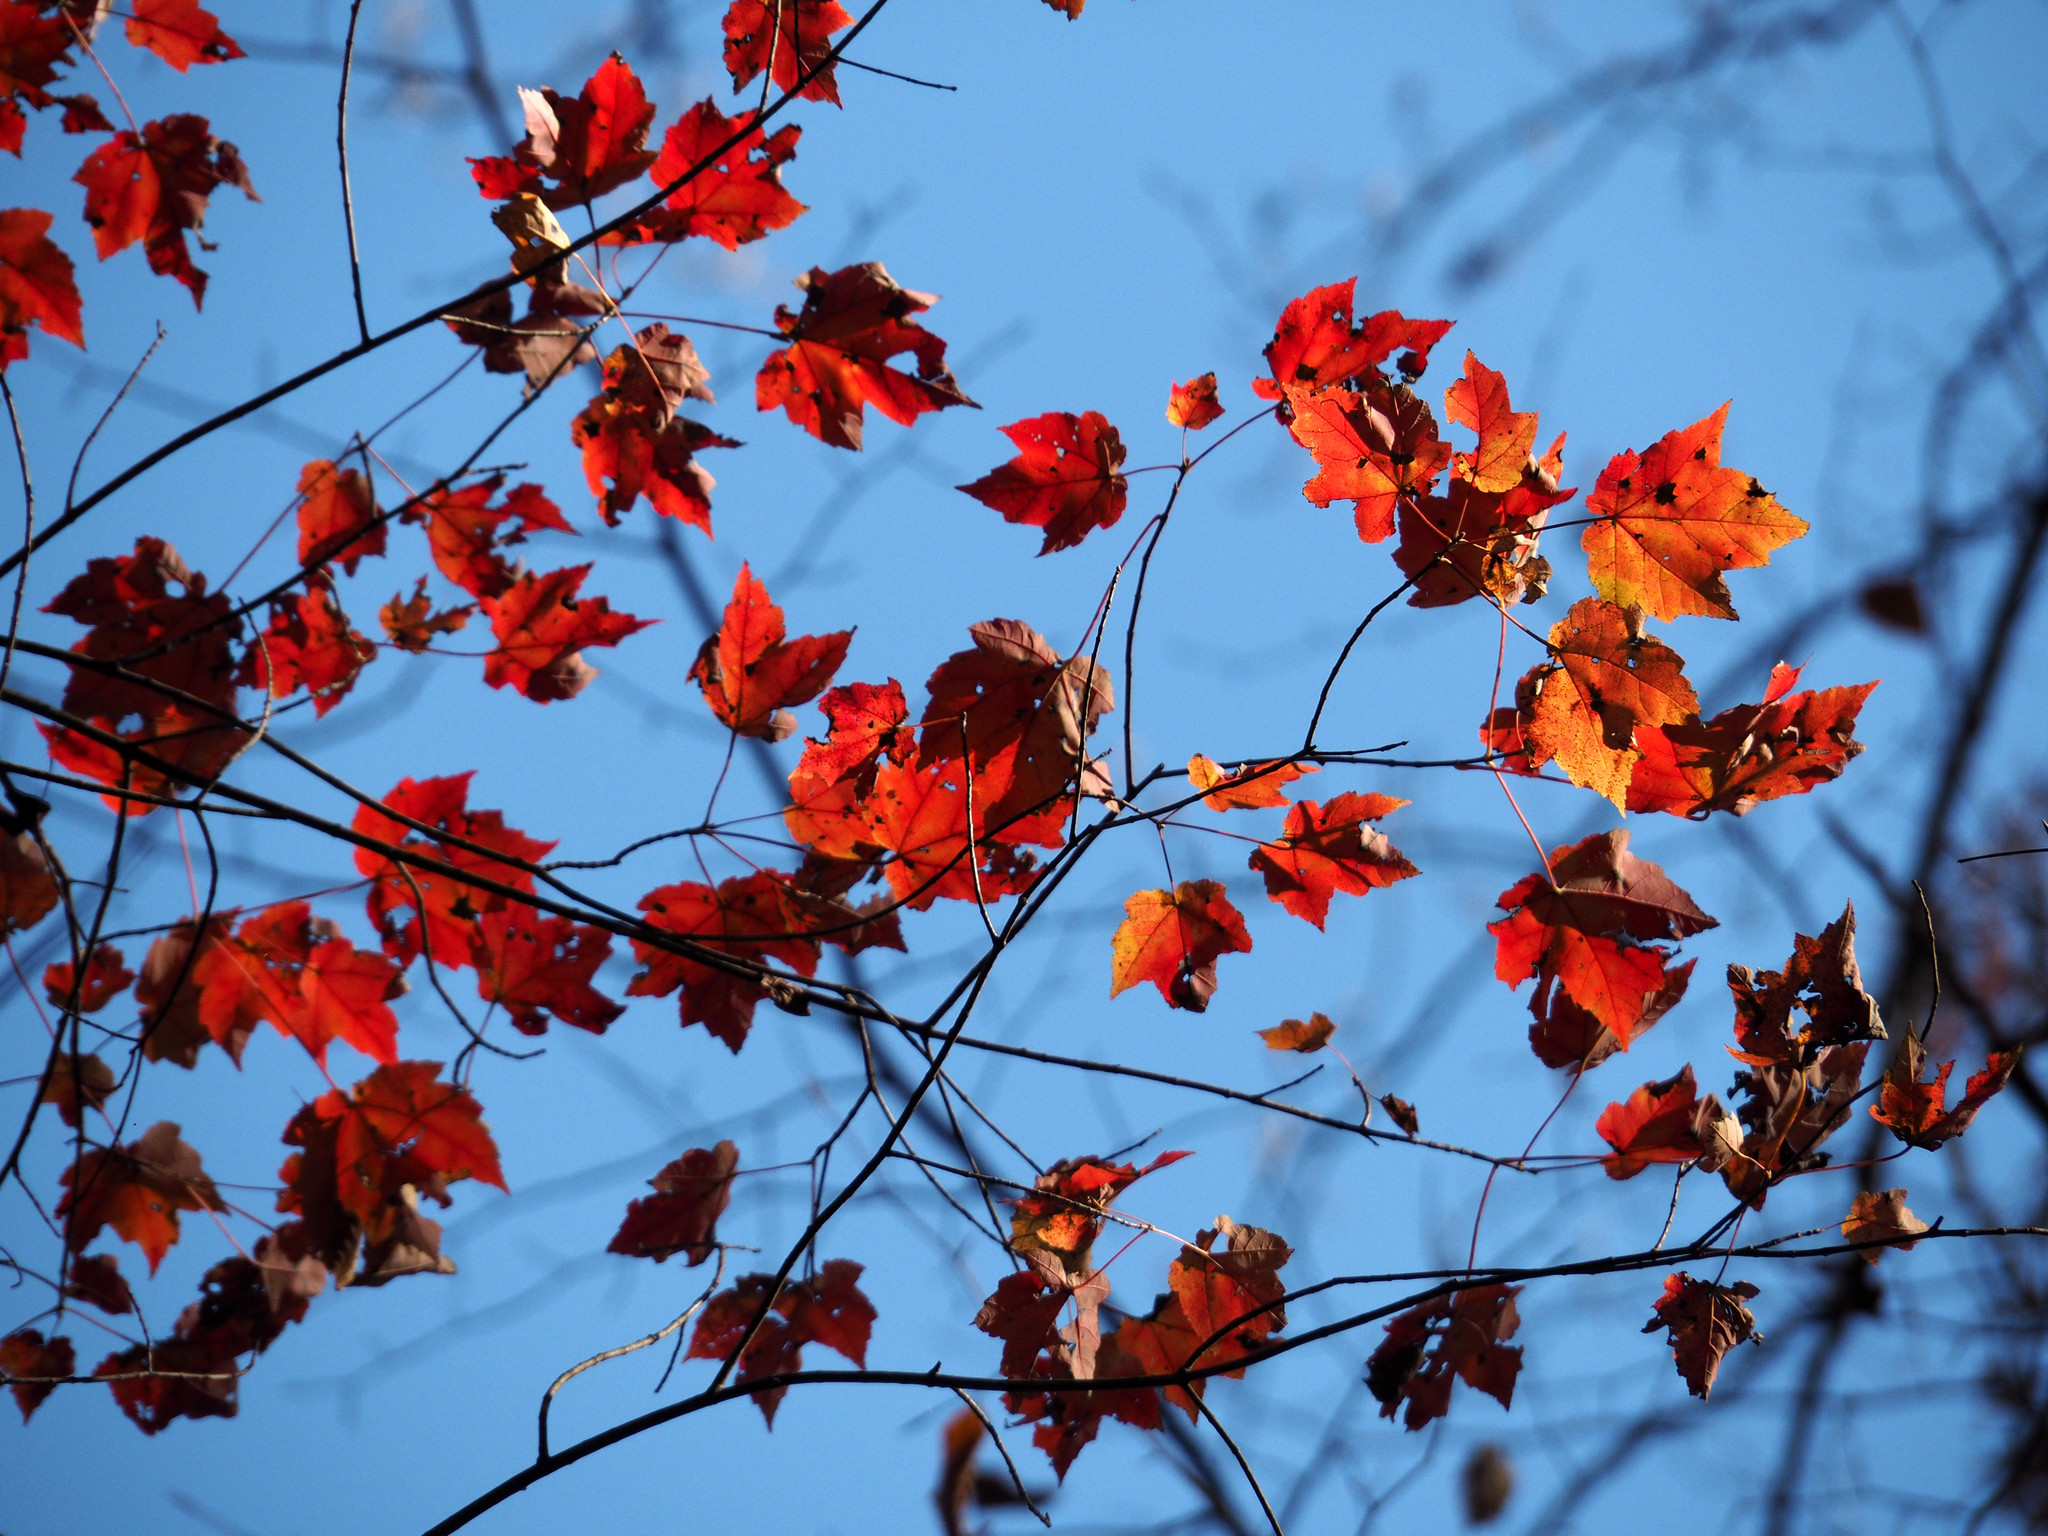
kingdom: Plantae
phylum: Tracheophyta
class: Magnoliopsida
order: Sapindales
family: Sapindaceae
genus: Acer
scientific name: Acer rubrum
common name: Red maple
